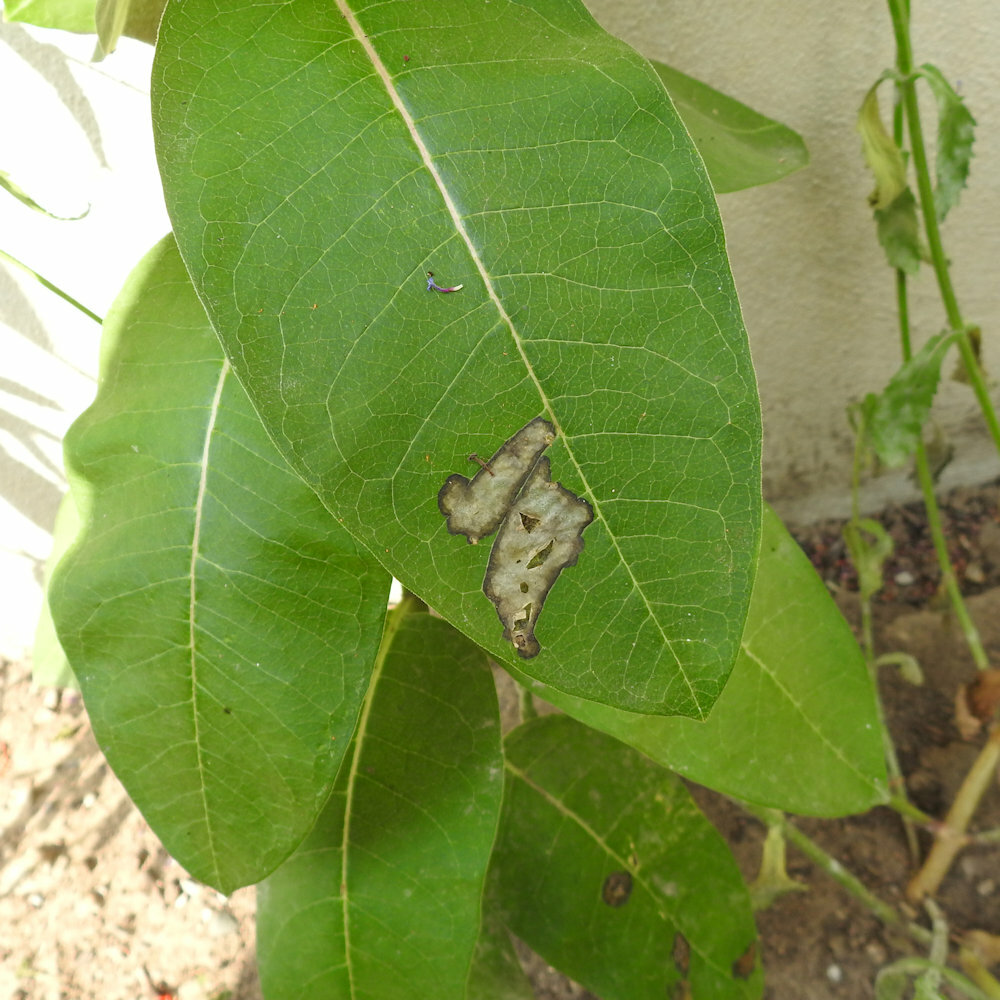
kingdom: Animalia
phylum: Arthropoda
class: Insecta
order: Diptera
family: Agromyzidae
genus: Liriomyza
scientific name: Liriomyza asclepiadis
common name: Milkweed leaf-miner fly
